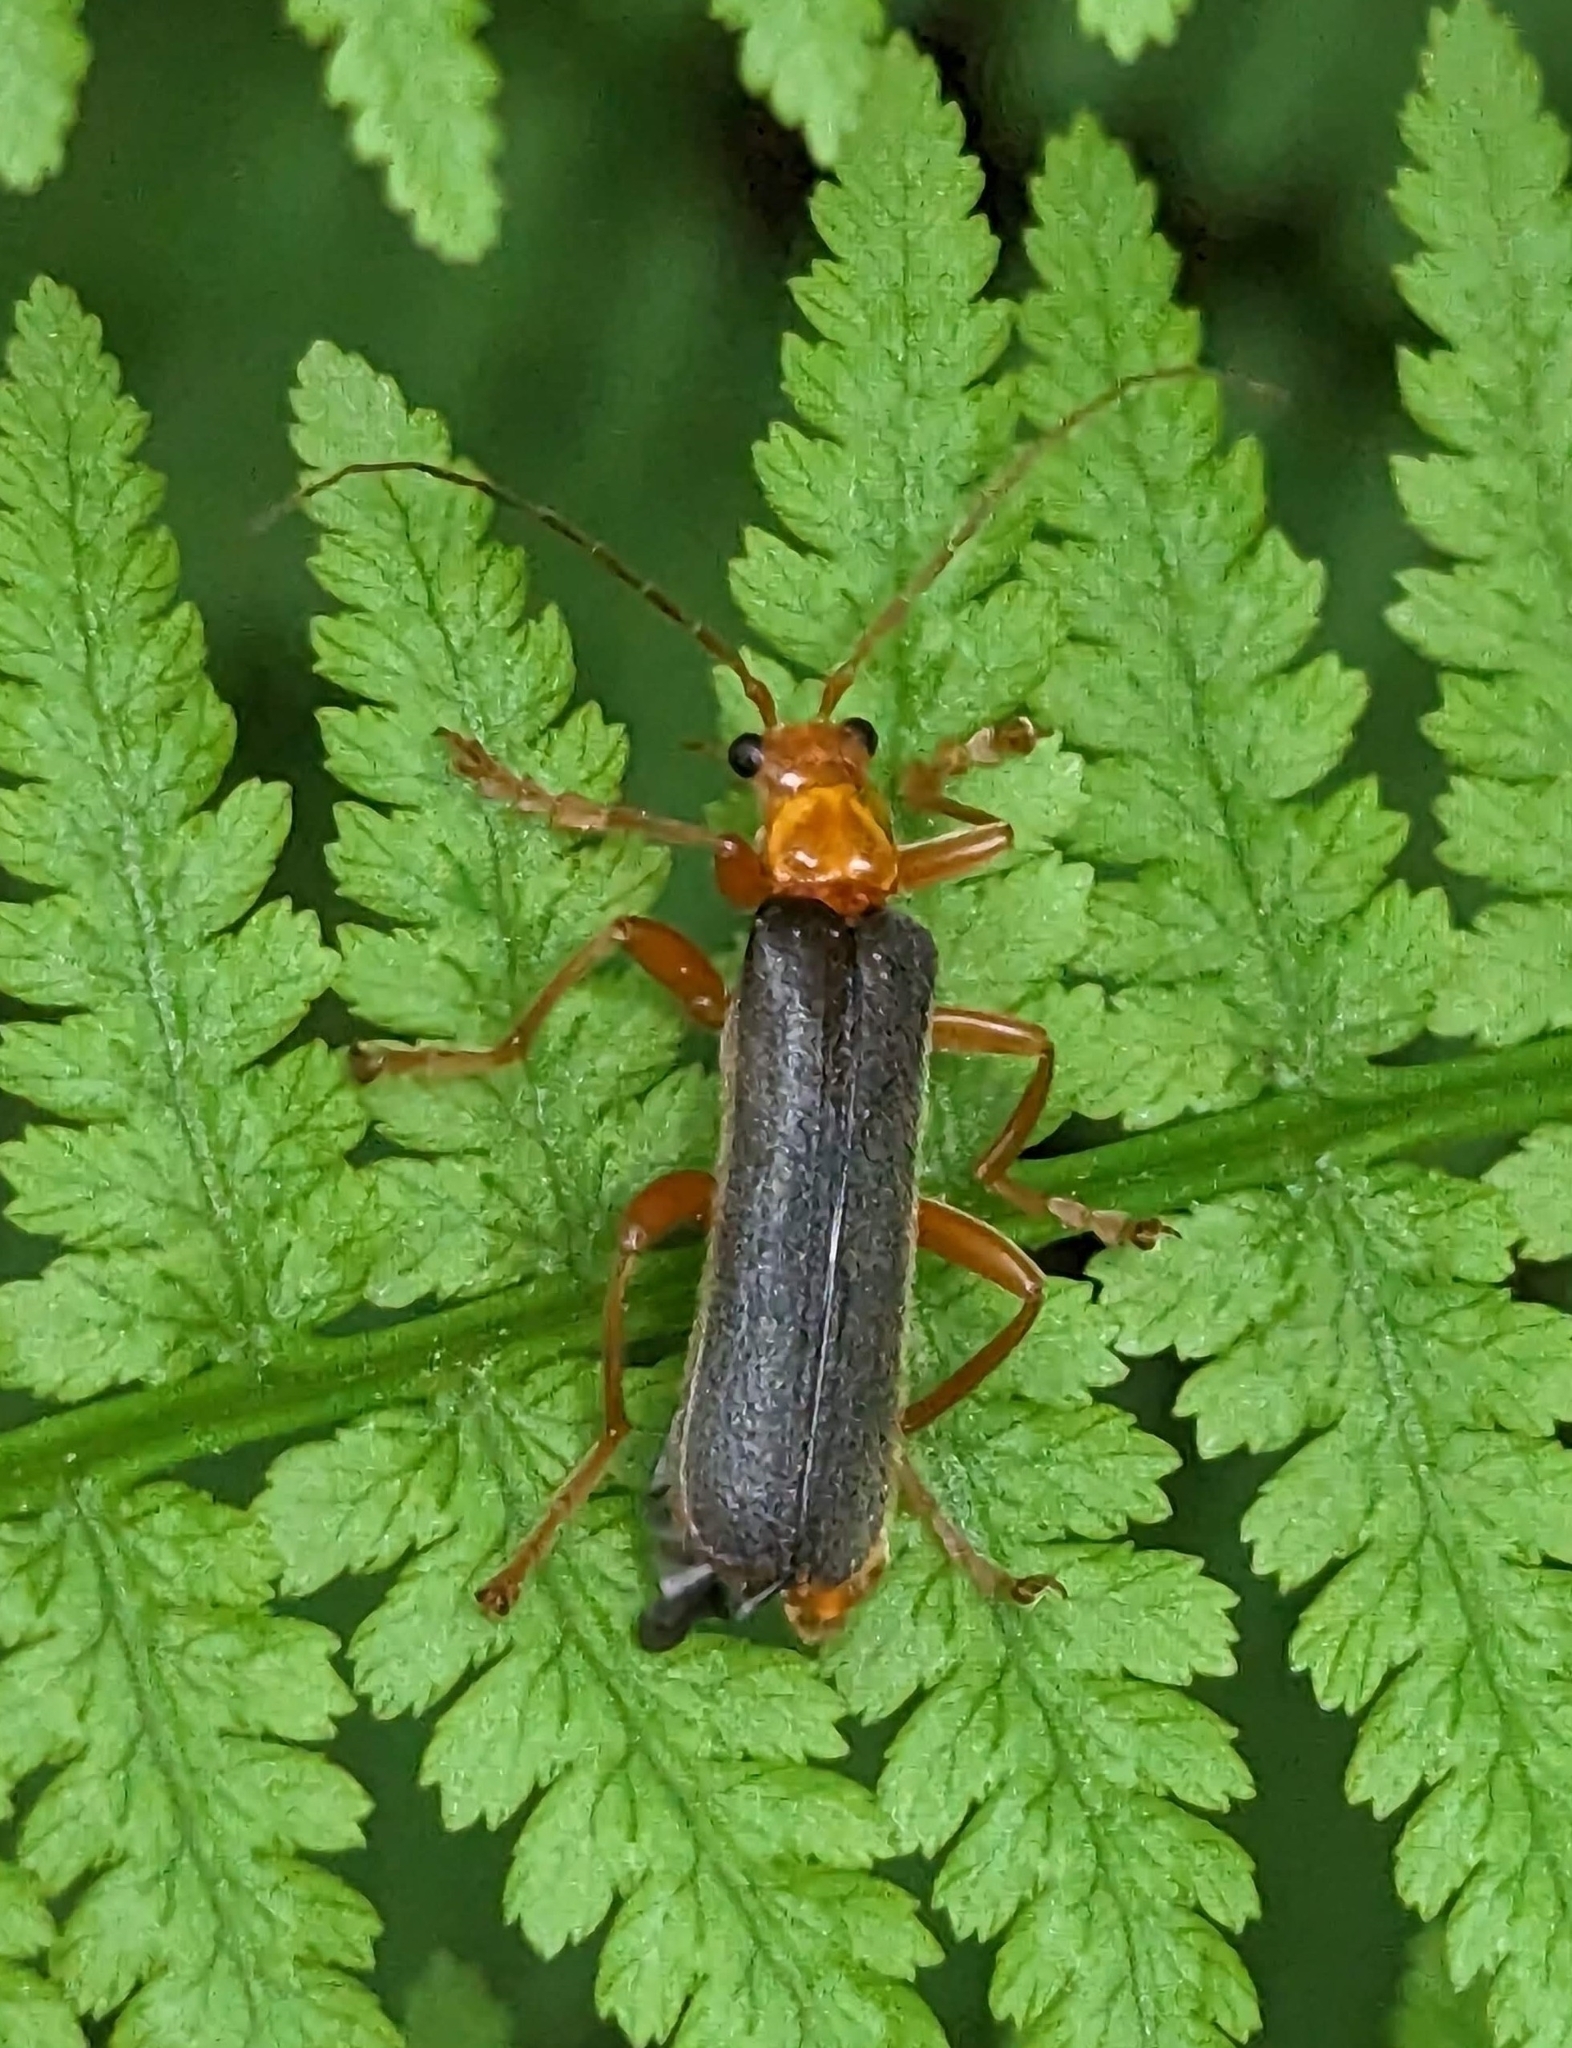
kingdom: Animalia
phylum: Arthropoda
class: Insecta
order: Coleoptera
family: Cantharidae
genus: Pacificanthia
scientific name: Pacificanthia rotundicollis
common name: Brown leatherwing beetle
